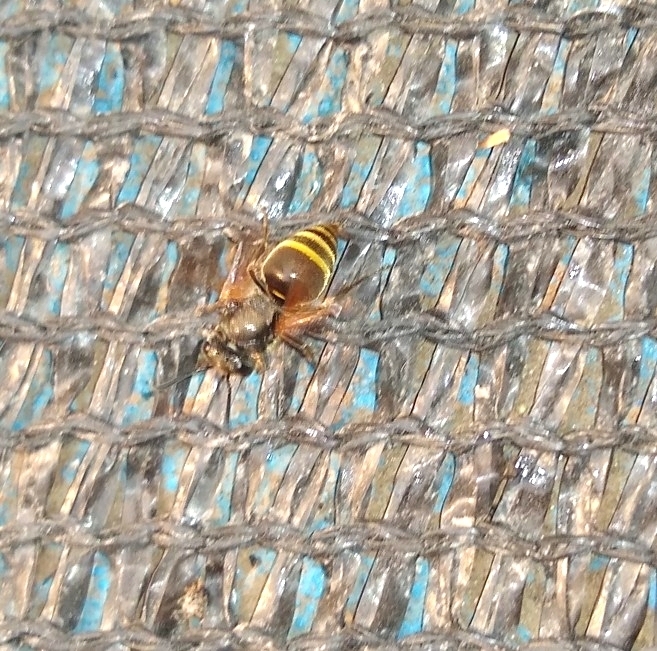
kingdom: Animalia
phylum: Arthropoda
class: Insecta
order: Hymenoptera
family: Vespidae
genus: Brachygastra
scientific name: Brachygastra lecheguana
